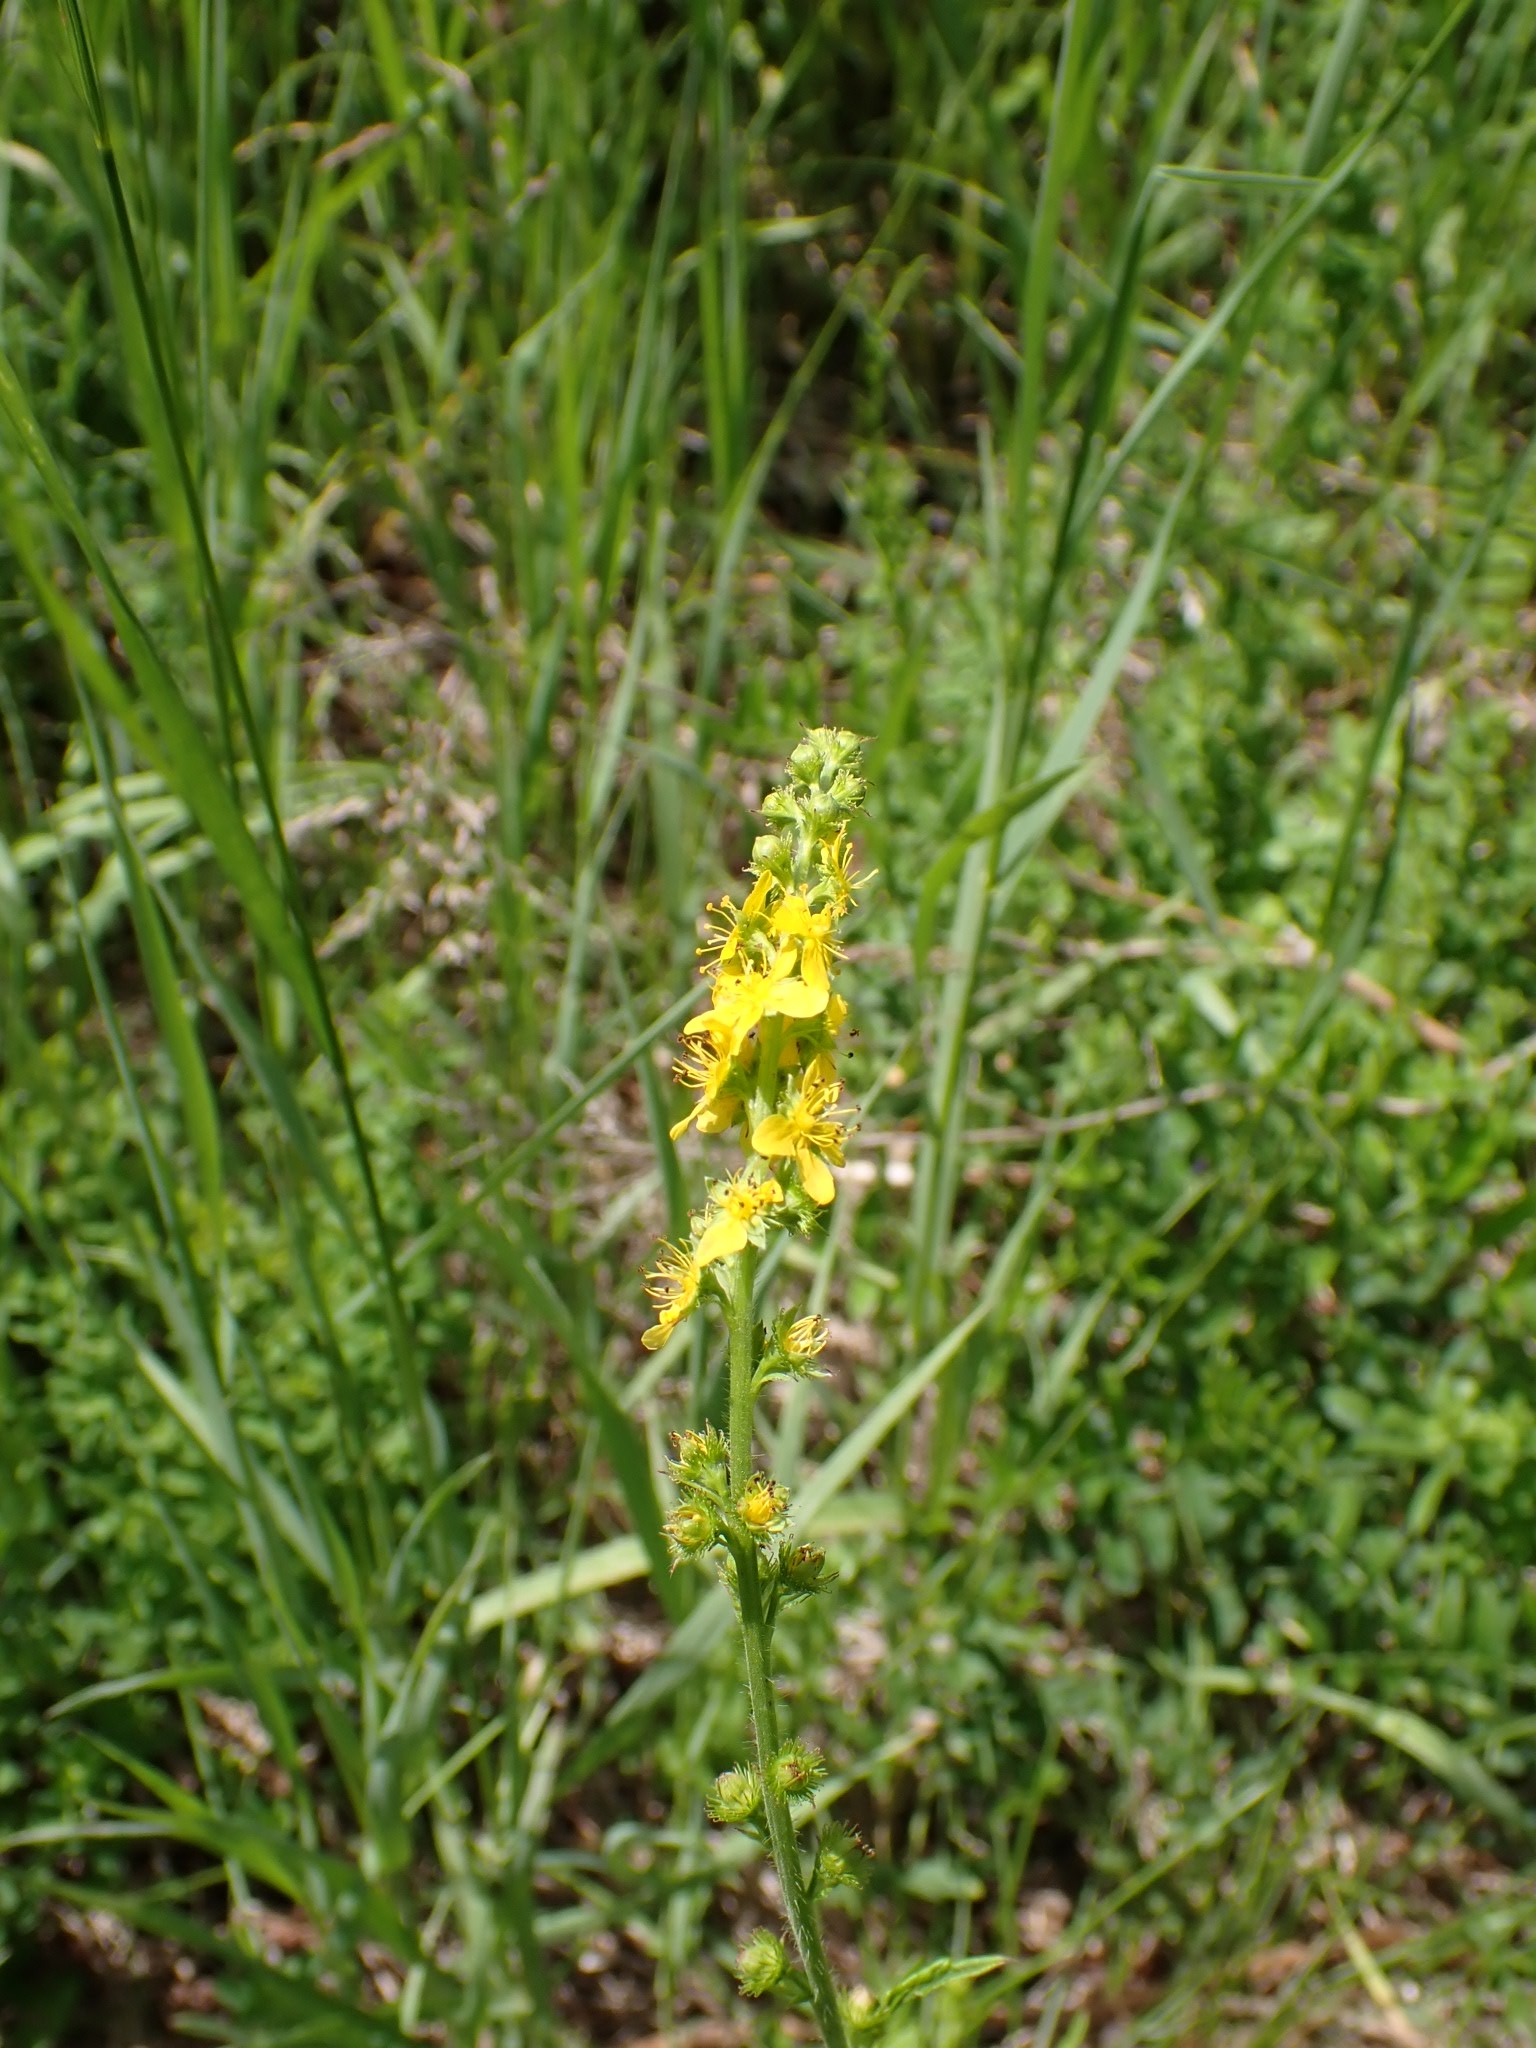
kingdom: Plantae
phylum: Tracheophyta
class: Magnoliopsida
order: Rosales
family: Rosaceae
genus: Agrimonia
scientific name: Agrimonia pilosa
